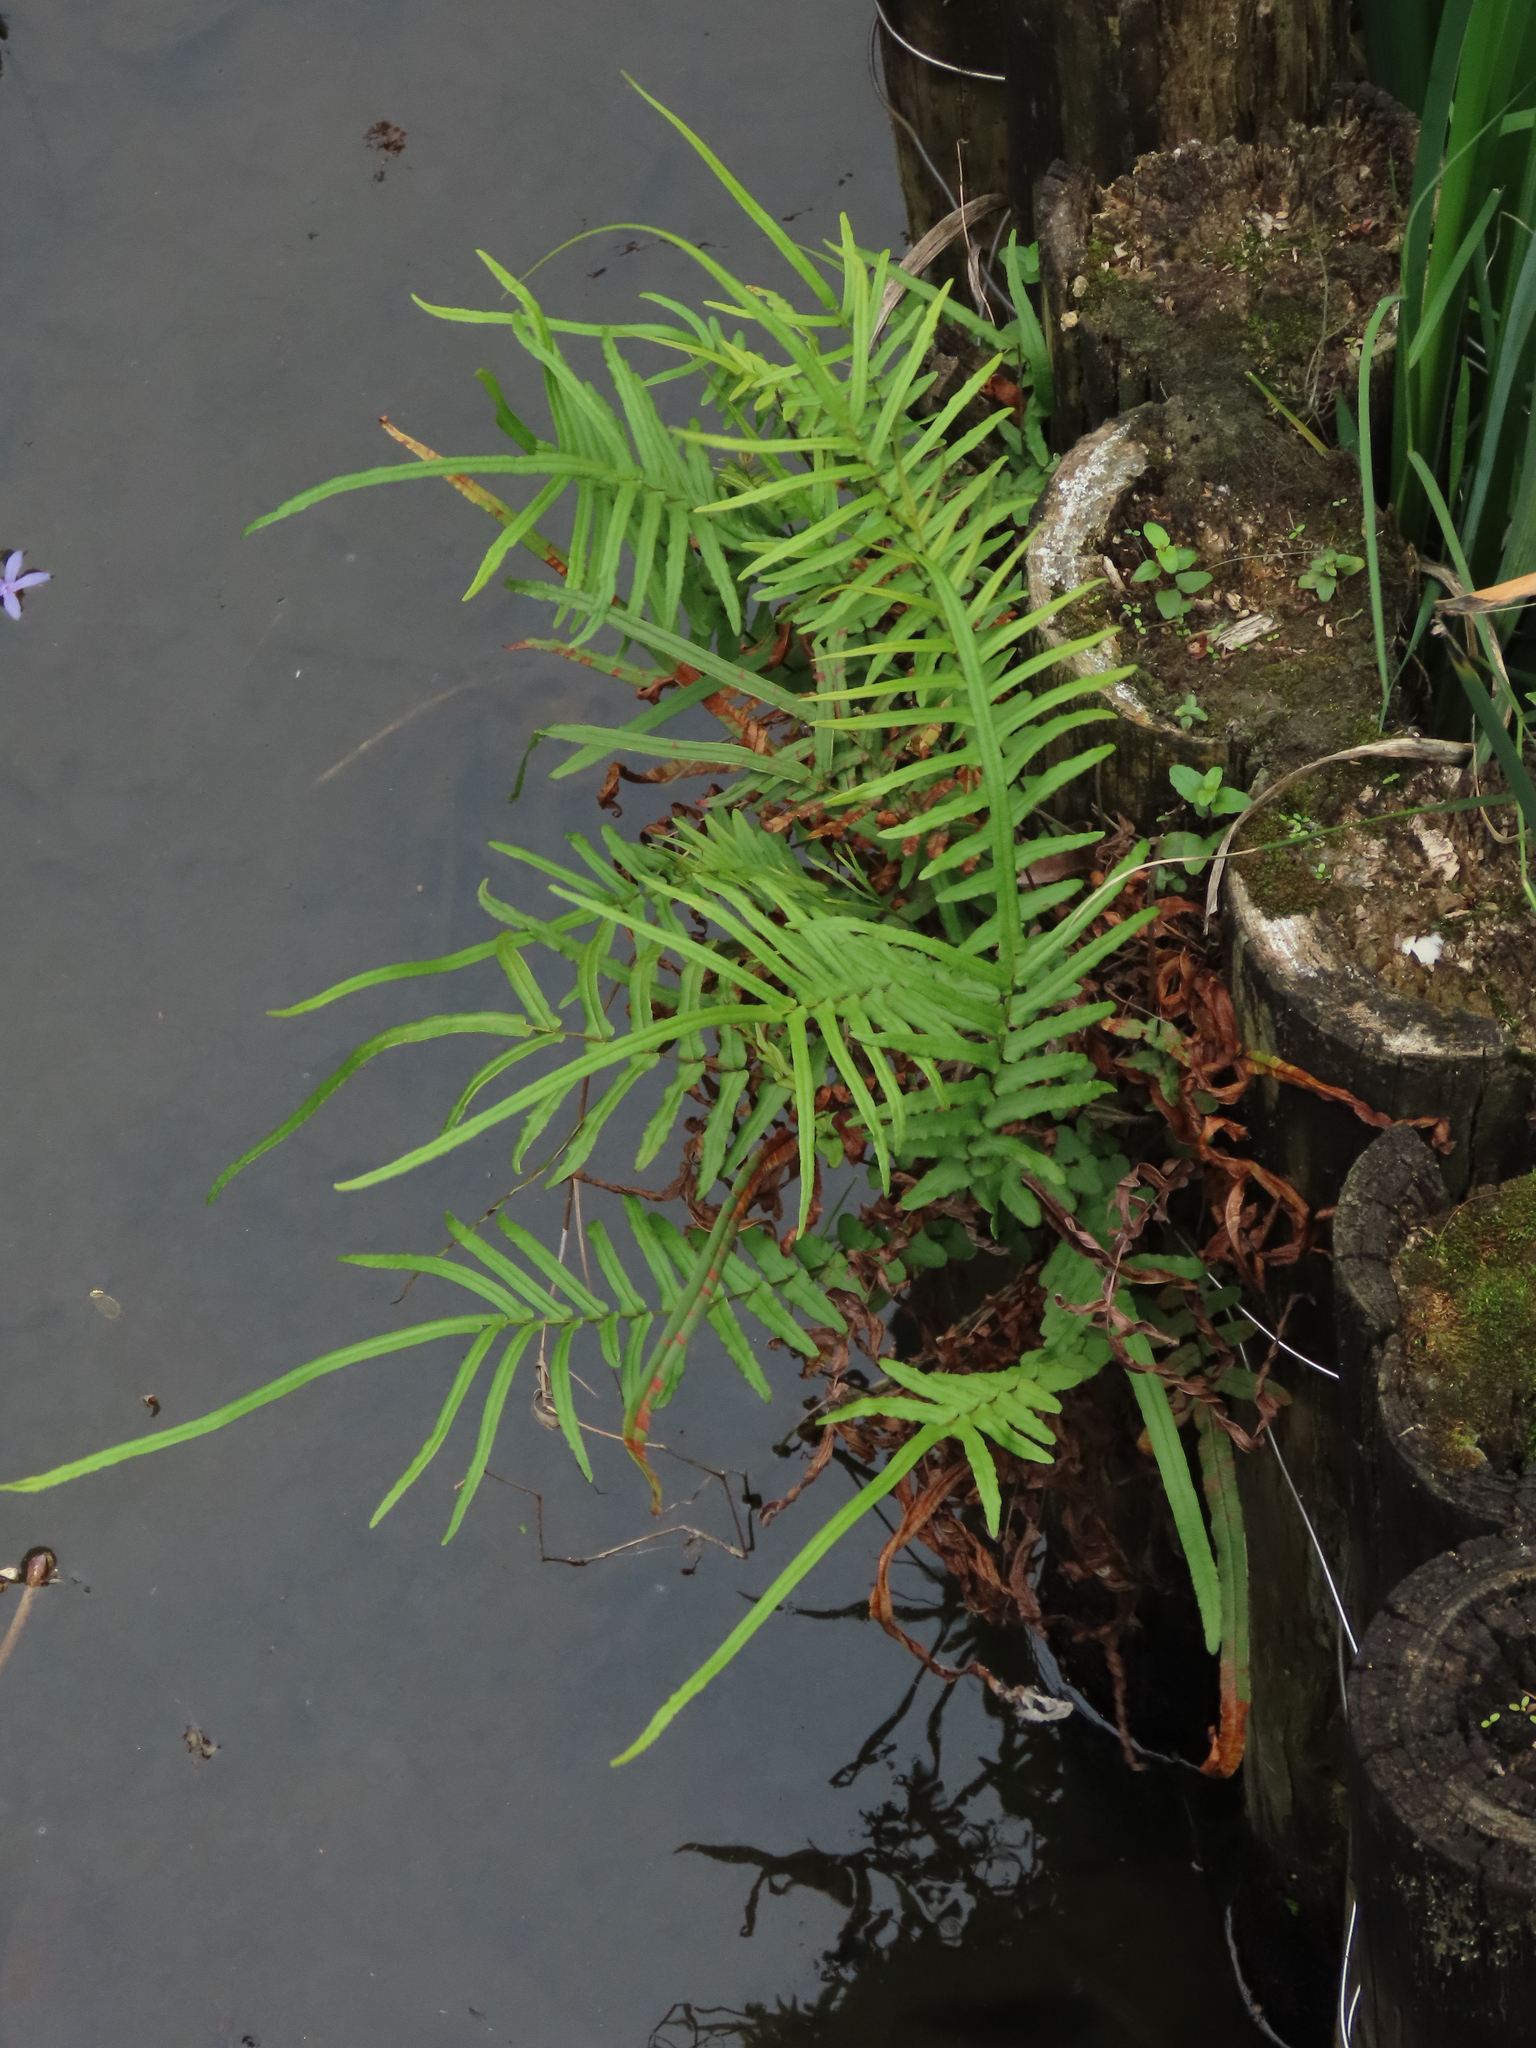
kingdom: Plantae
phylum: Tracheophyta
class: Polypodiopsida
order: Polypodiales
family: Pteridaceae
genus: Pteris
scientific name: Pteris vittata
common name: Ladder brake
